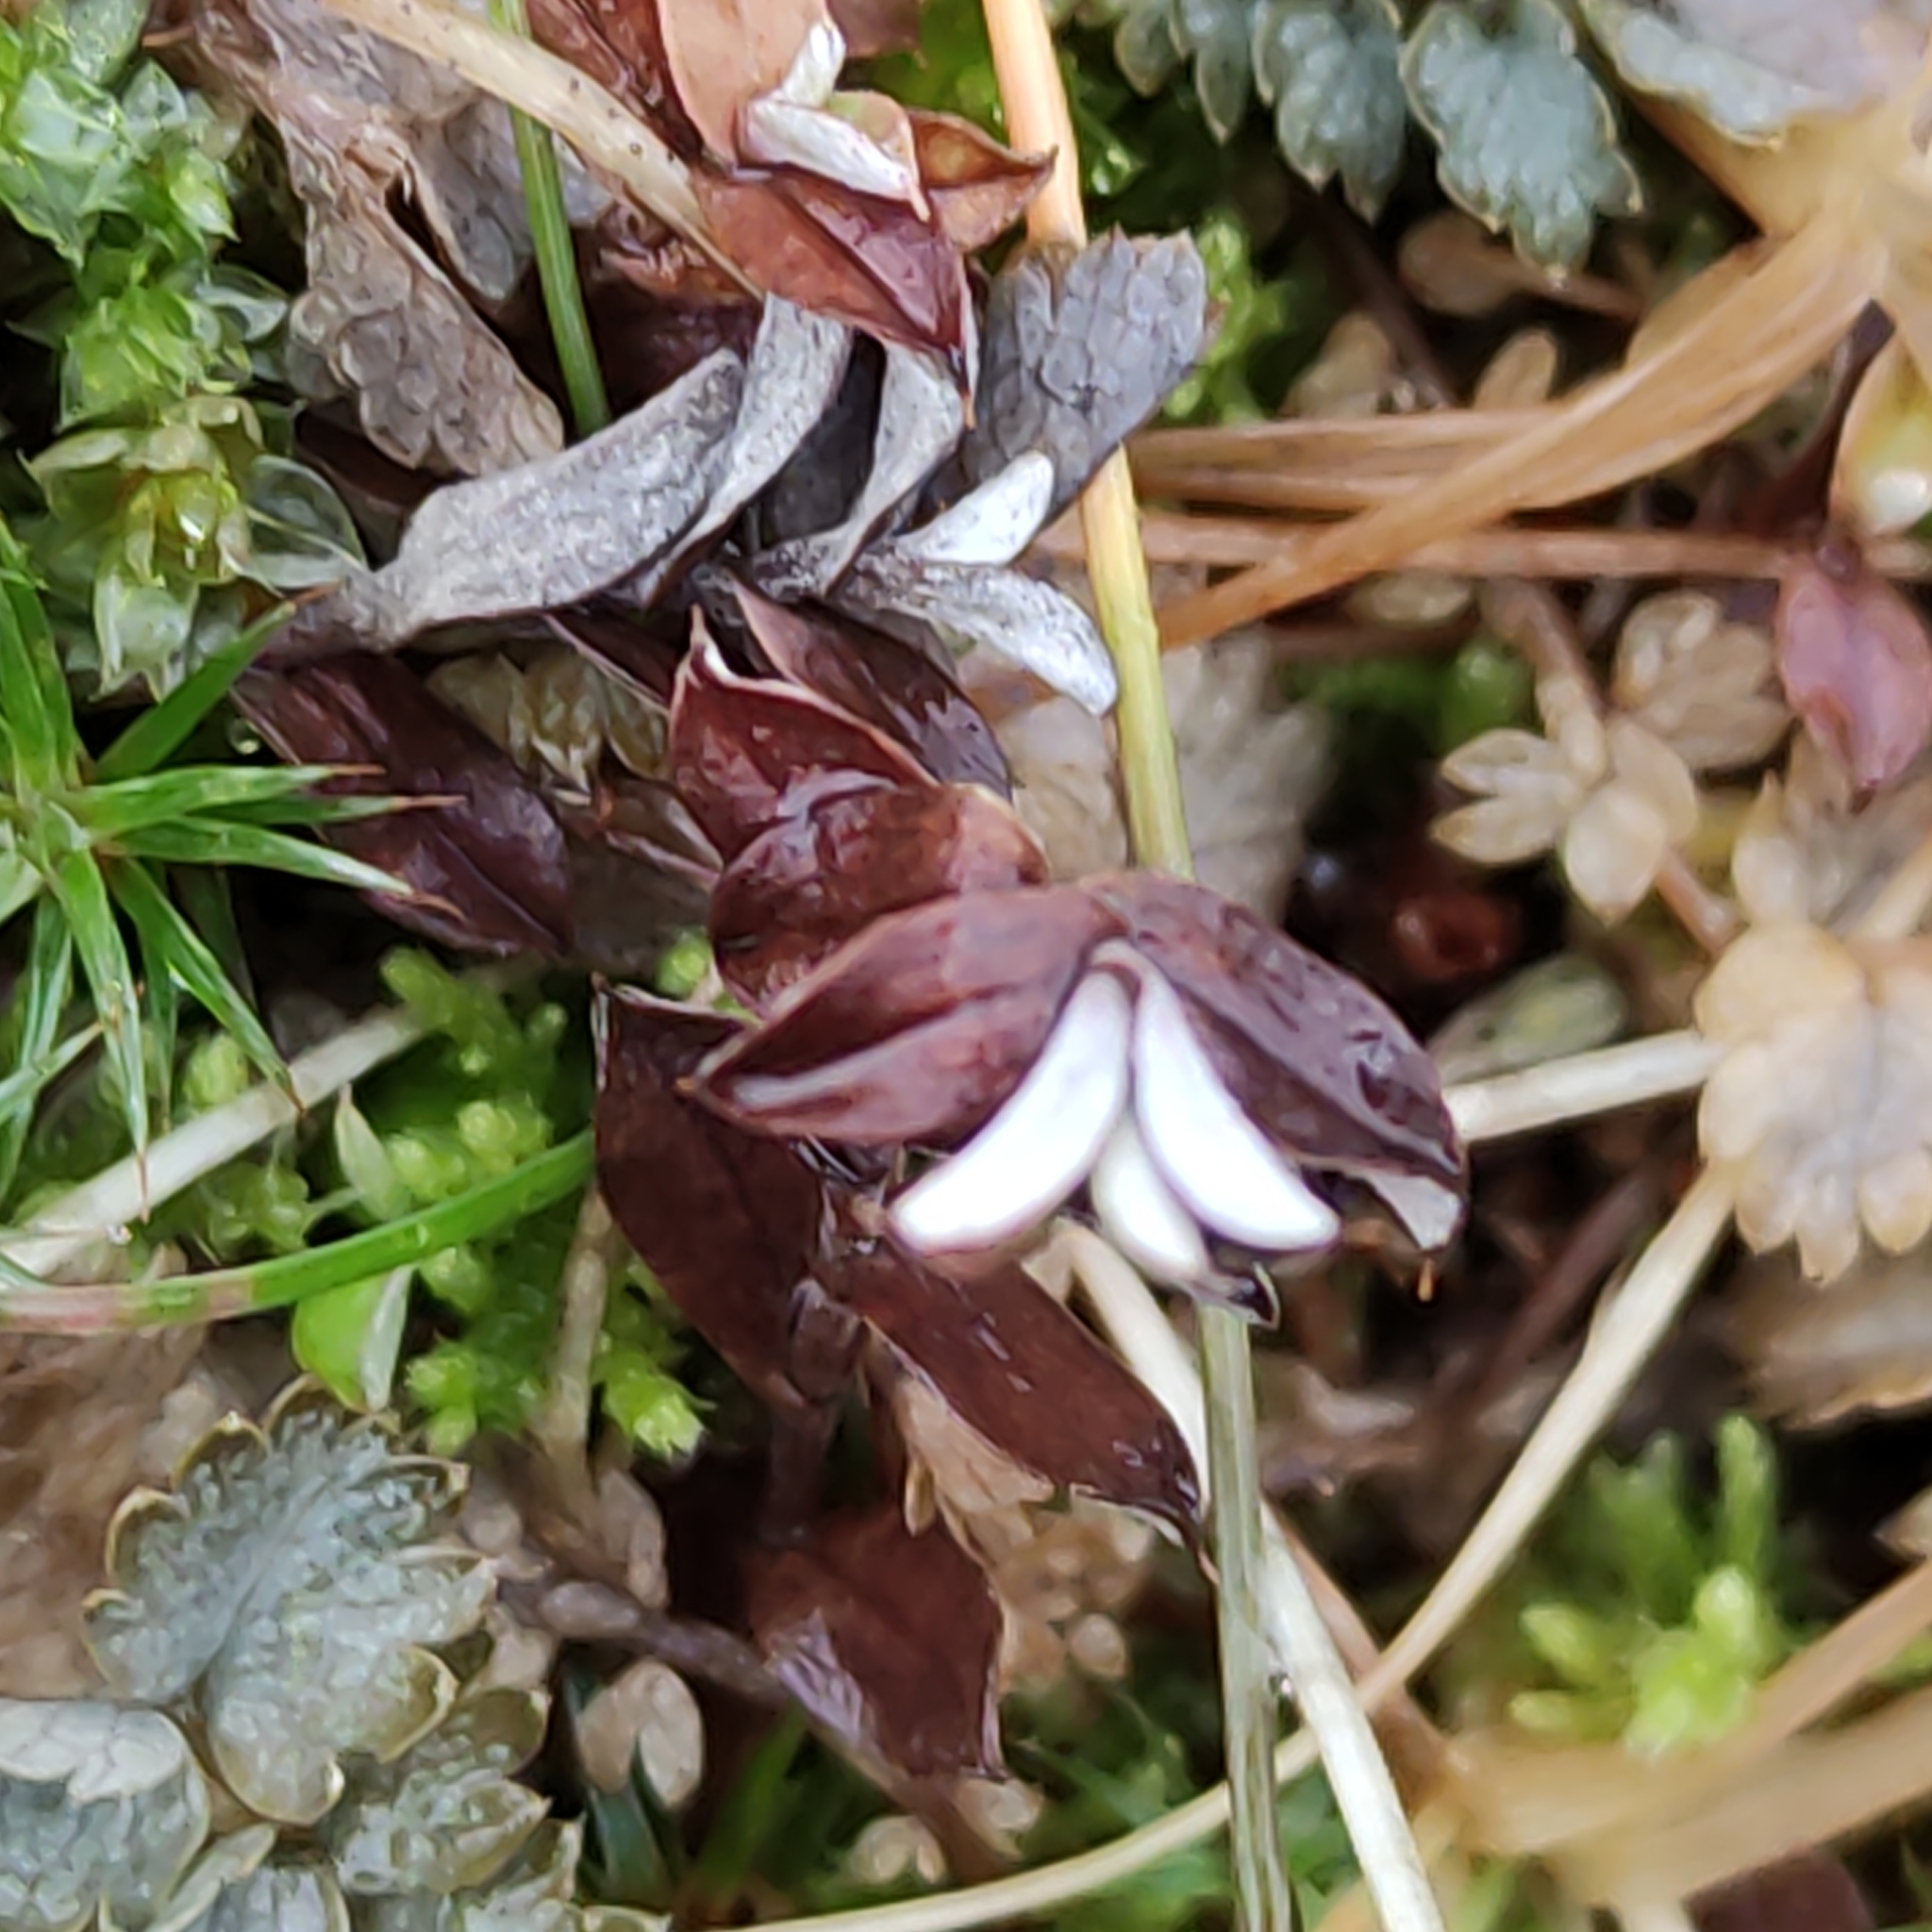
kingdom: Plantae
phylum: Tracheophyta
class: Magnoliopsida
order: Ericales
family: Ericaceae
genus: Styphelia
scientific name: Styphelia nesophila
